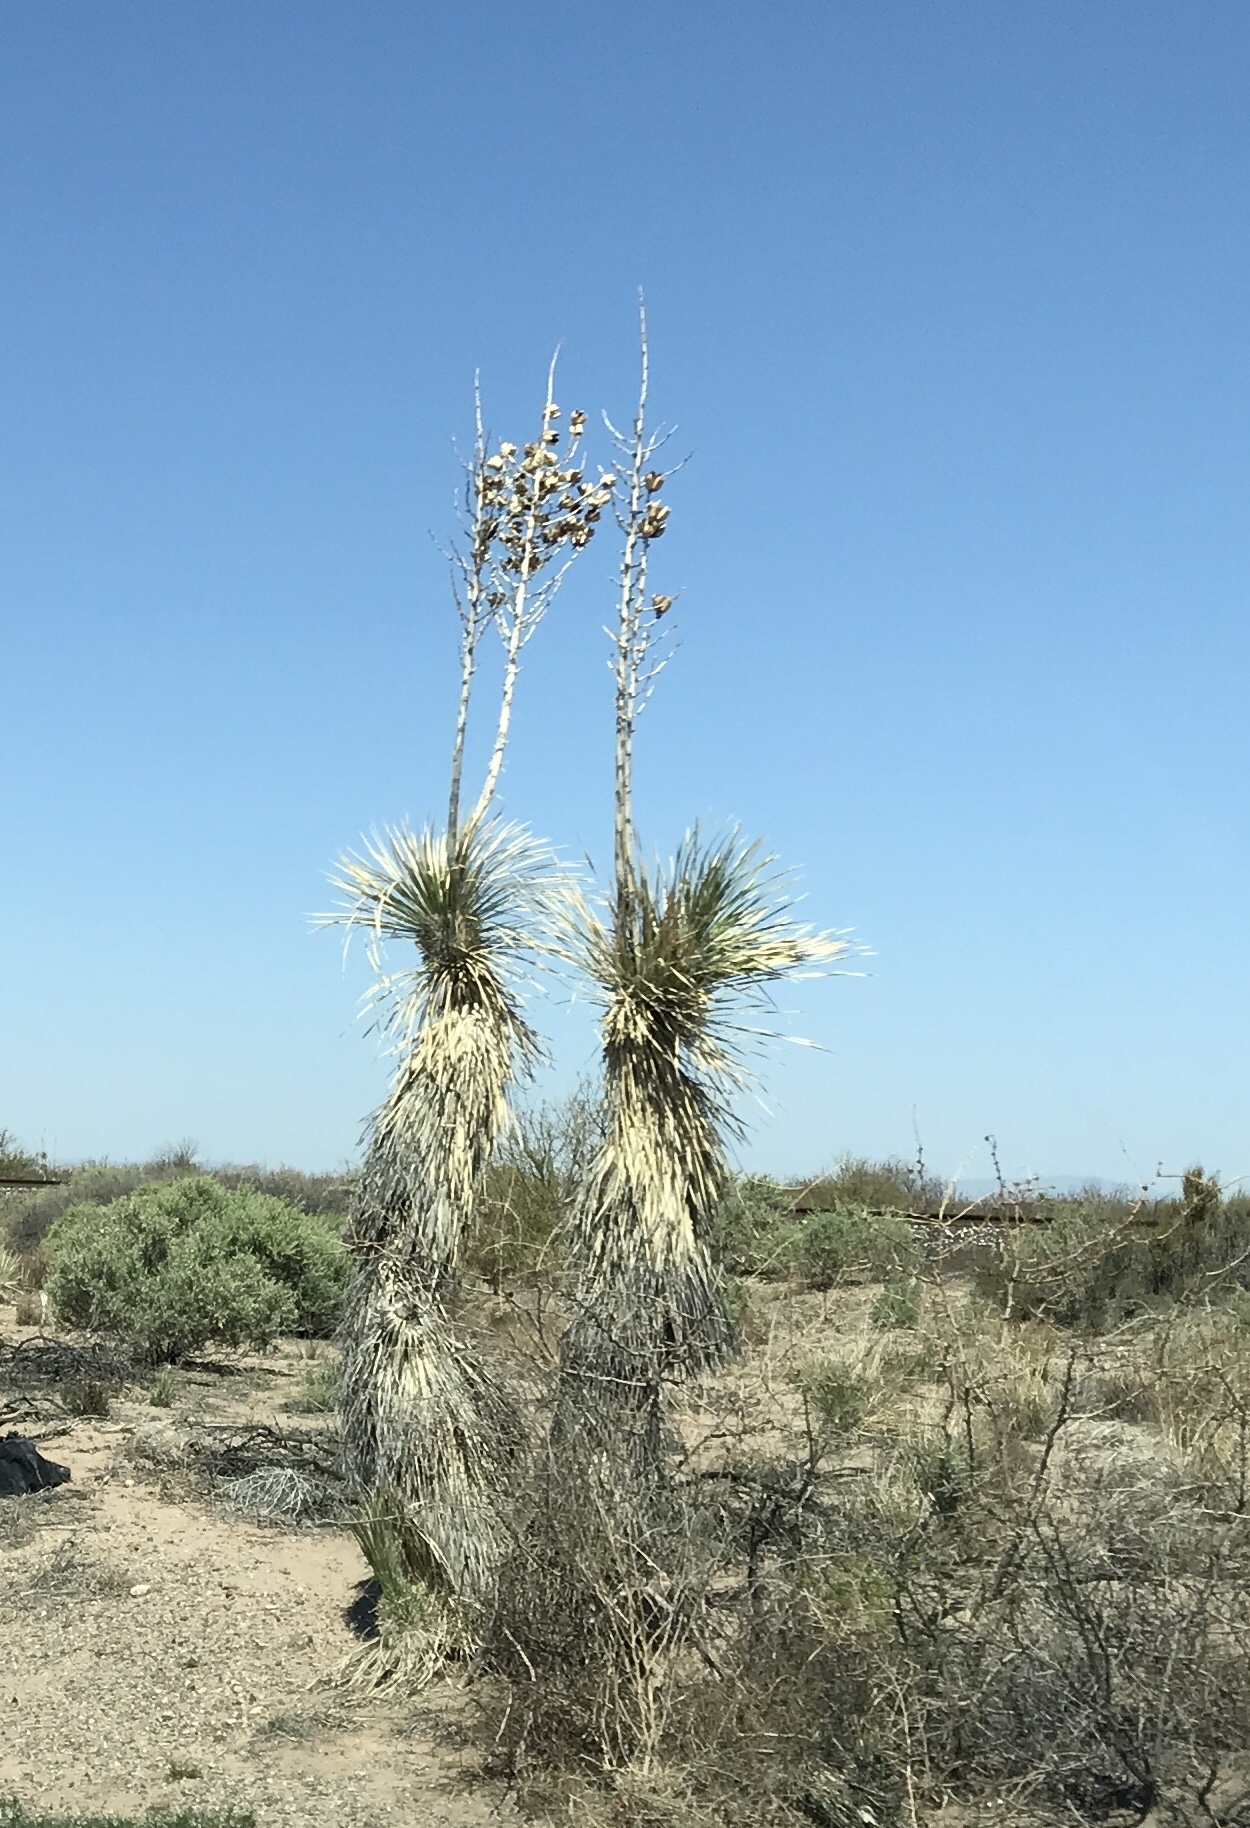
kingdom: Plantae
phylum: Tracheophyta
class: Liliopsida
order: Asparagales
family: Asparagaceae
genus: Yucca
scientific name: Yucca elata
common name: Palmella
